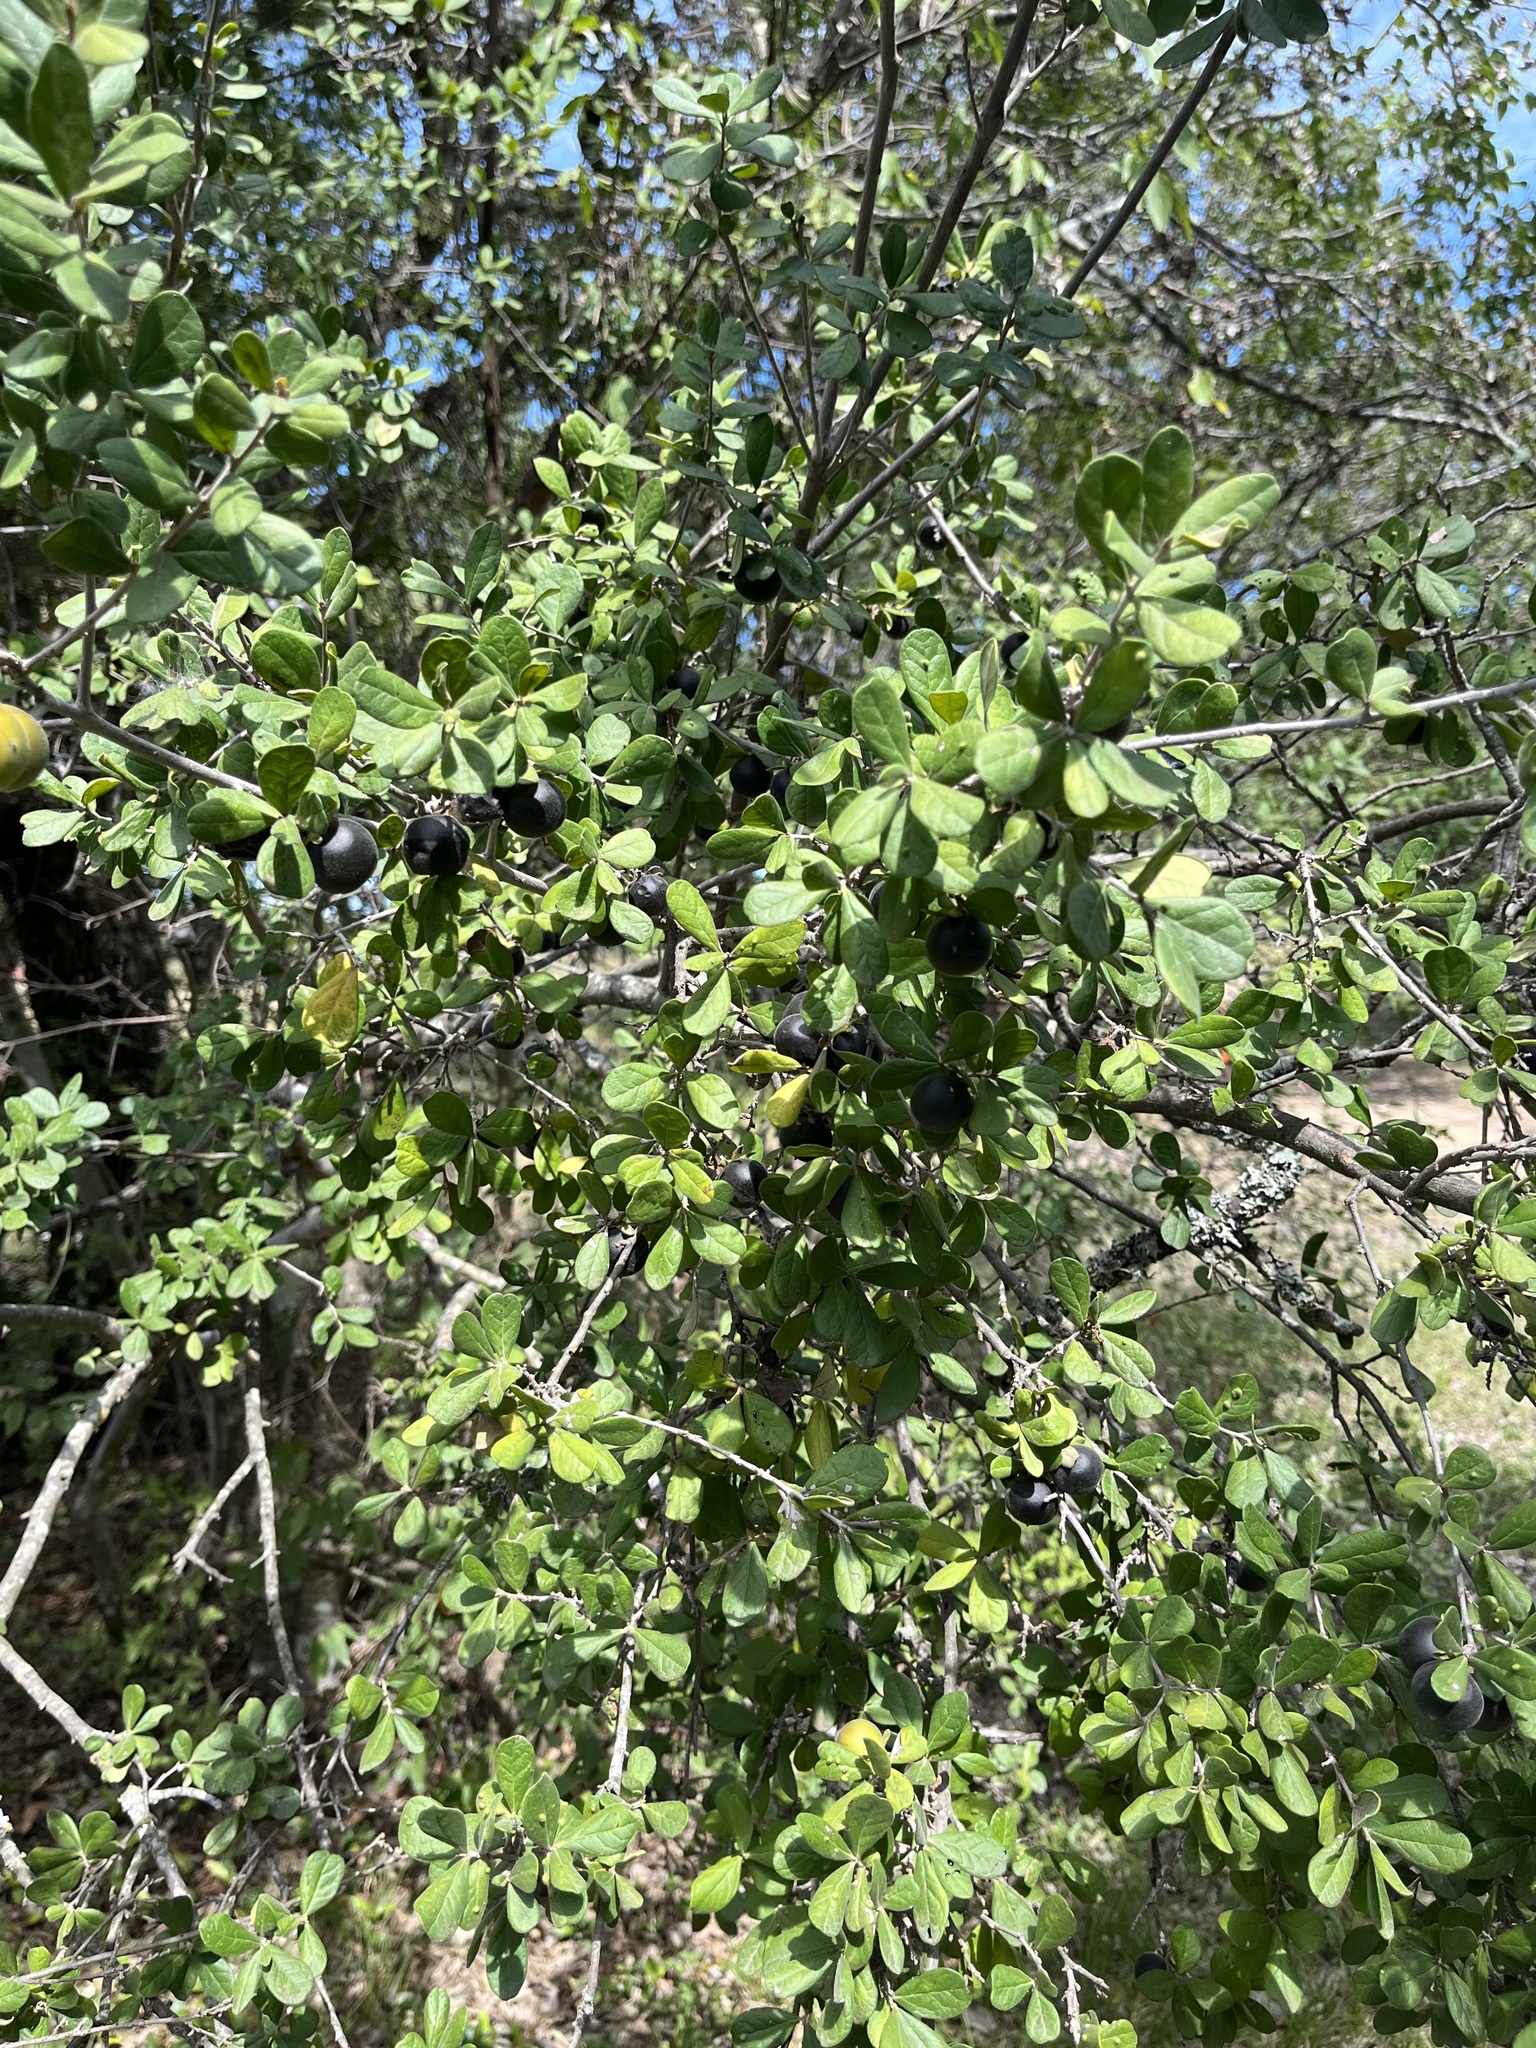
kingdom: Plantae
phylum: Tracheophyta
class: Magnoliopsida
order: Ericales
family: Ebenaceae
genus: Diospyros
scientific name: Diospyros texana
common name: Texas persimmon
